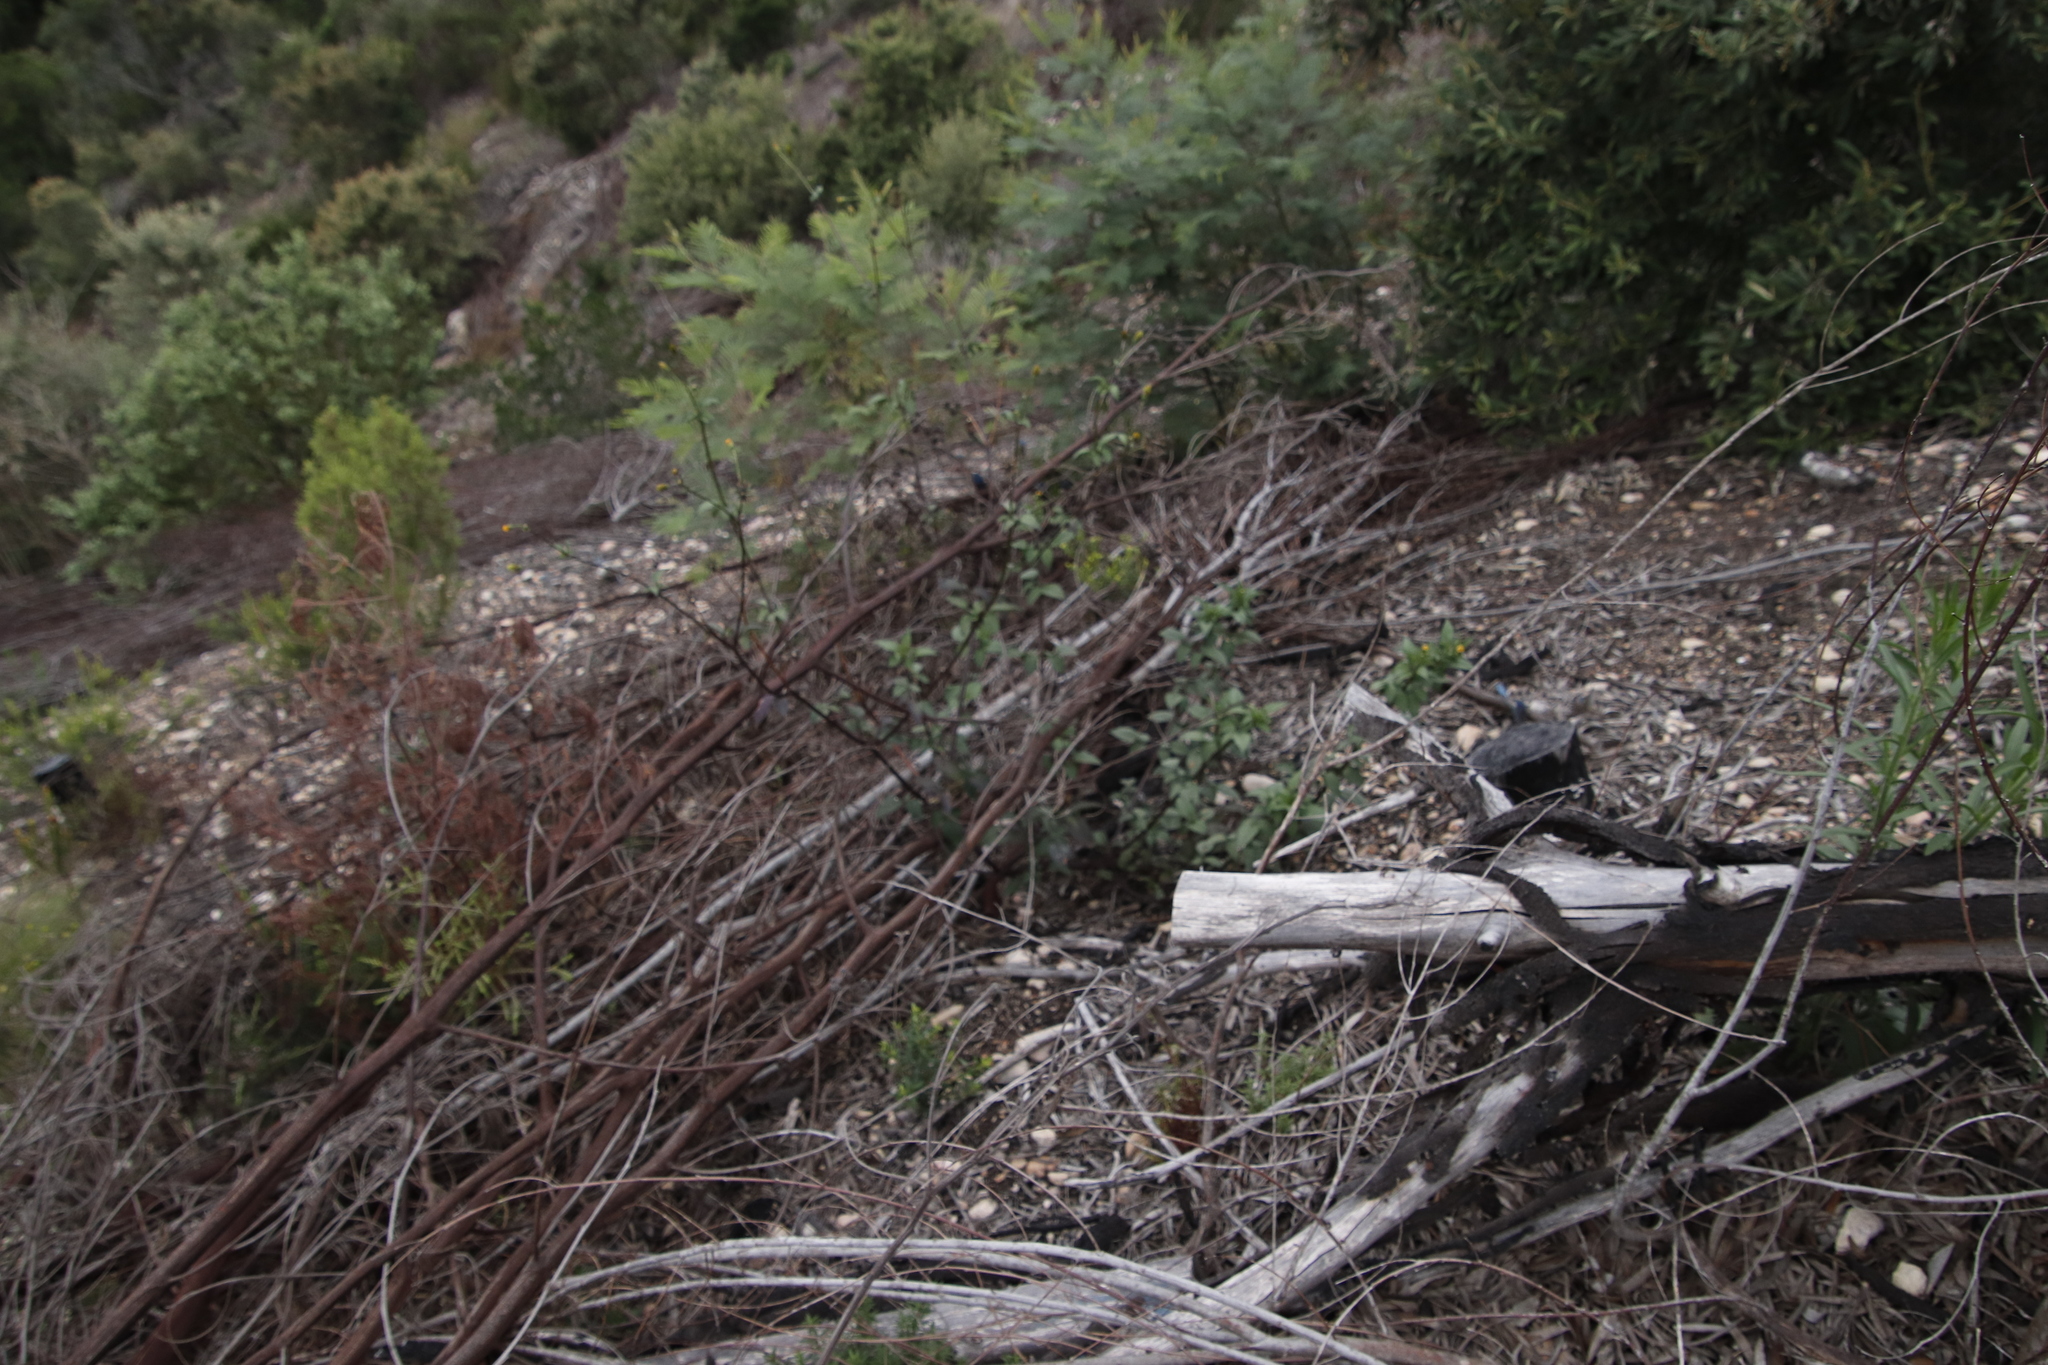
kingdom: Plantae
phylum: Tracheophyta
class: Magnoliopsida
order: Asterales
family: Asteraceae
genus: Bidens
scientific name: Bidens pilosa
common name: Black-jack
